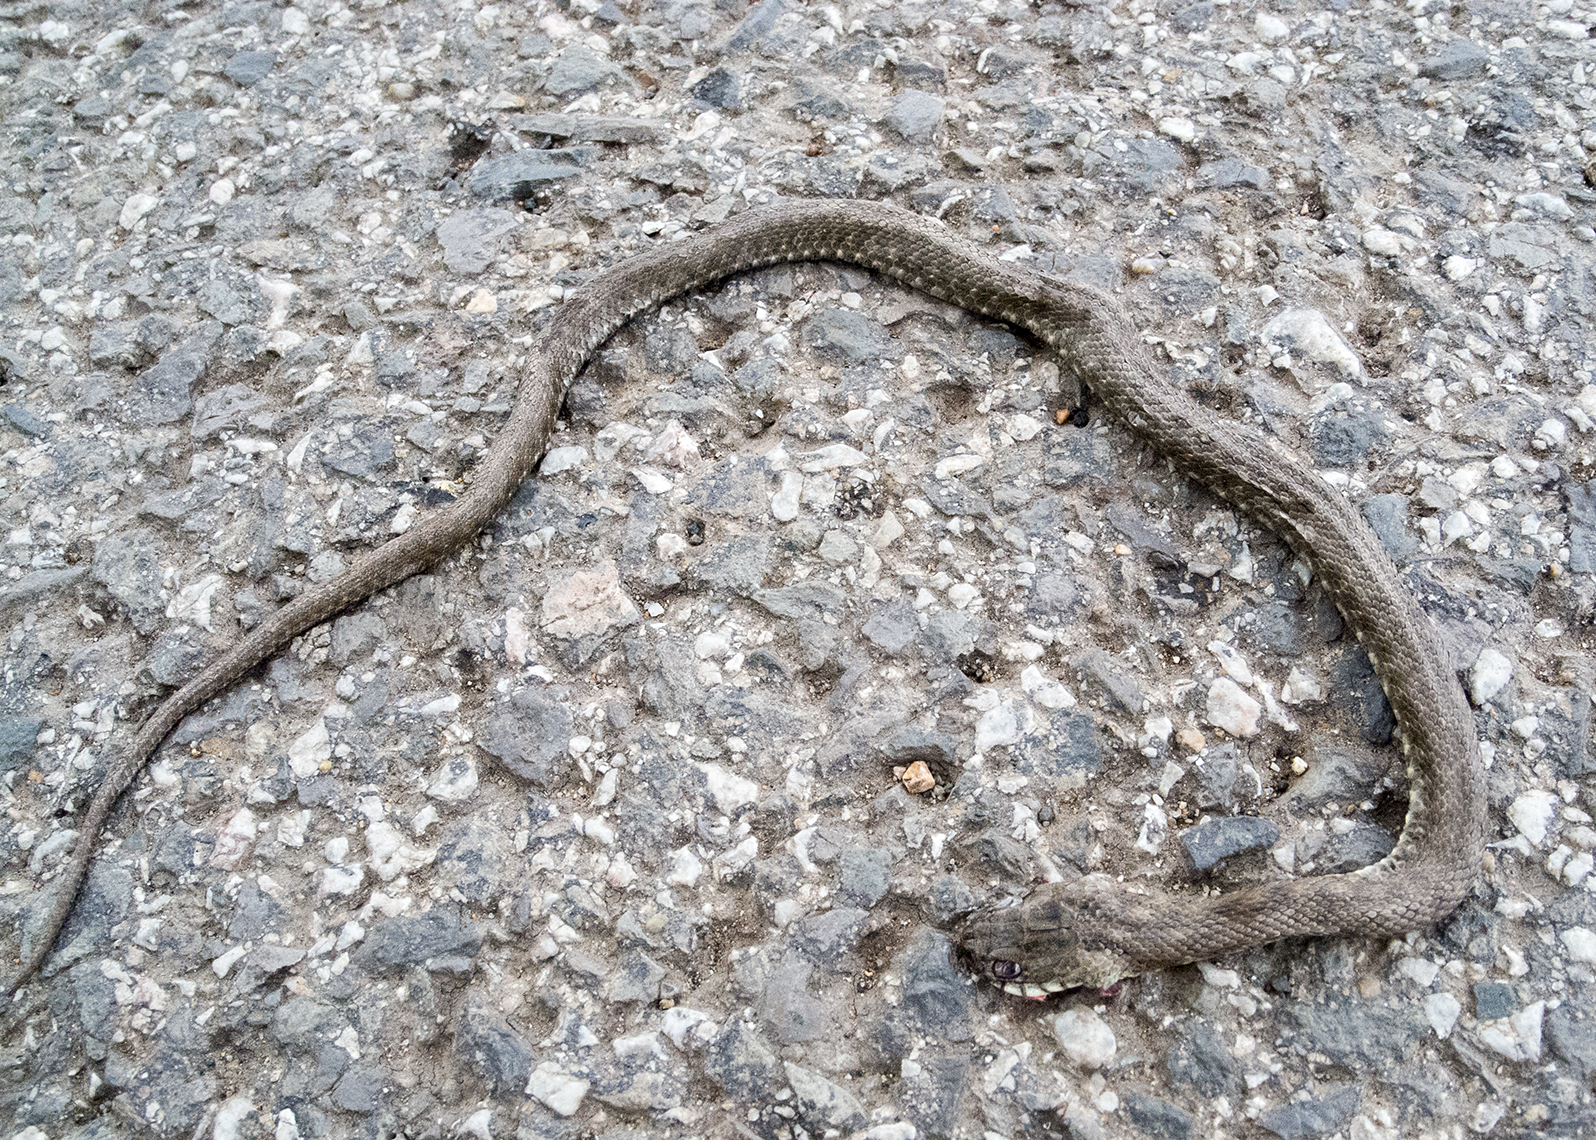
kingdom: Animalia
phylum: Chordata
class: Squamata
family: Colubridae
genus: Natrix
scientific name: Natrix tessellata
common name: Dice snake
